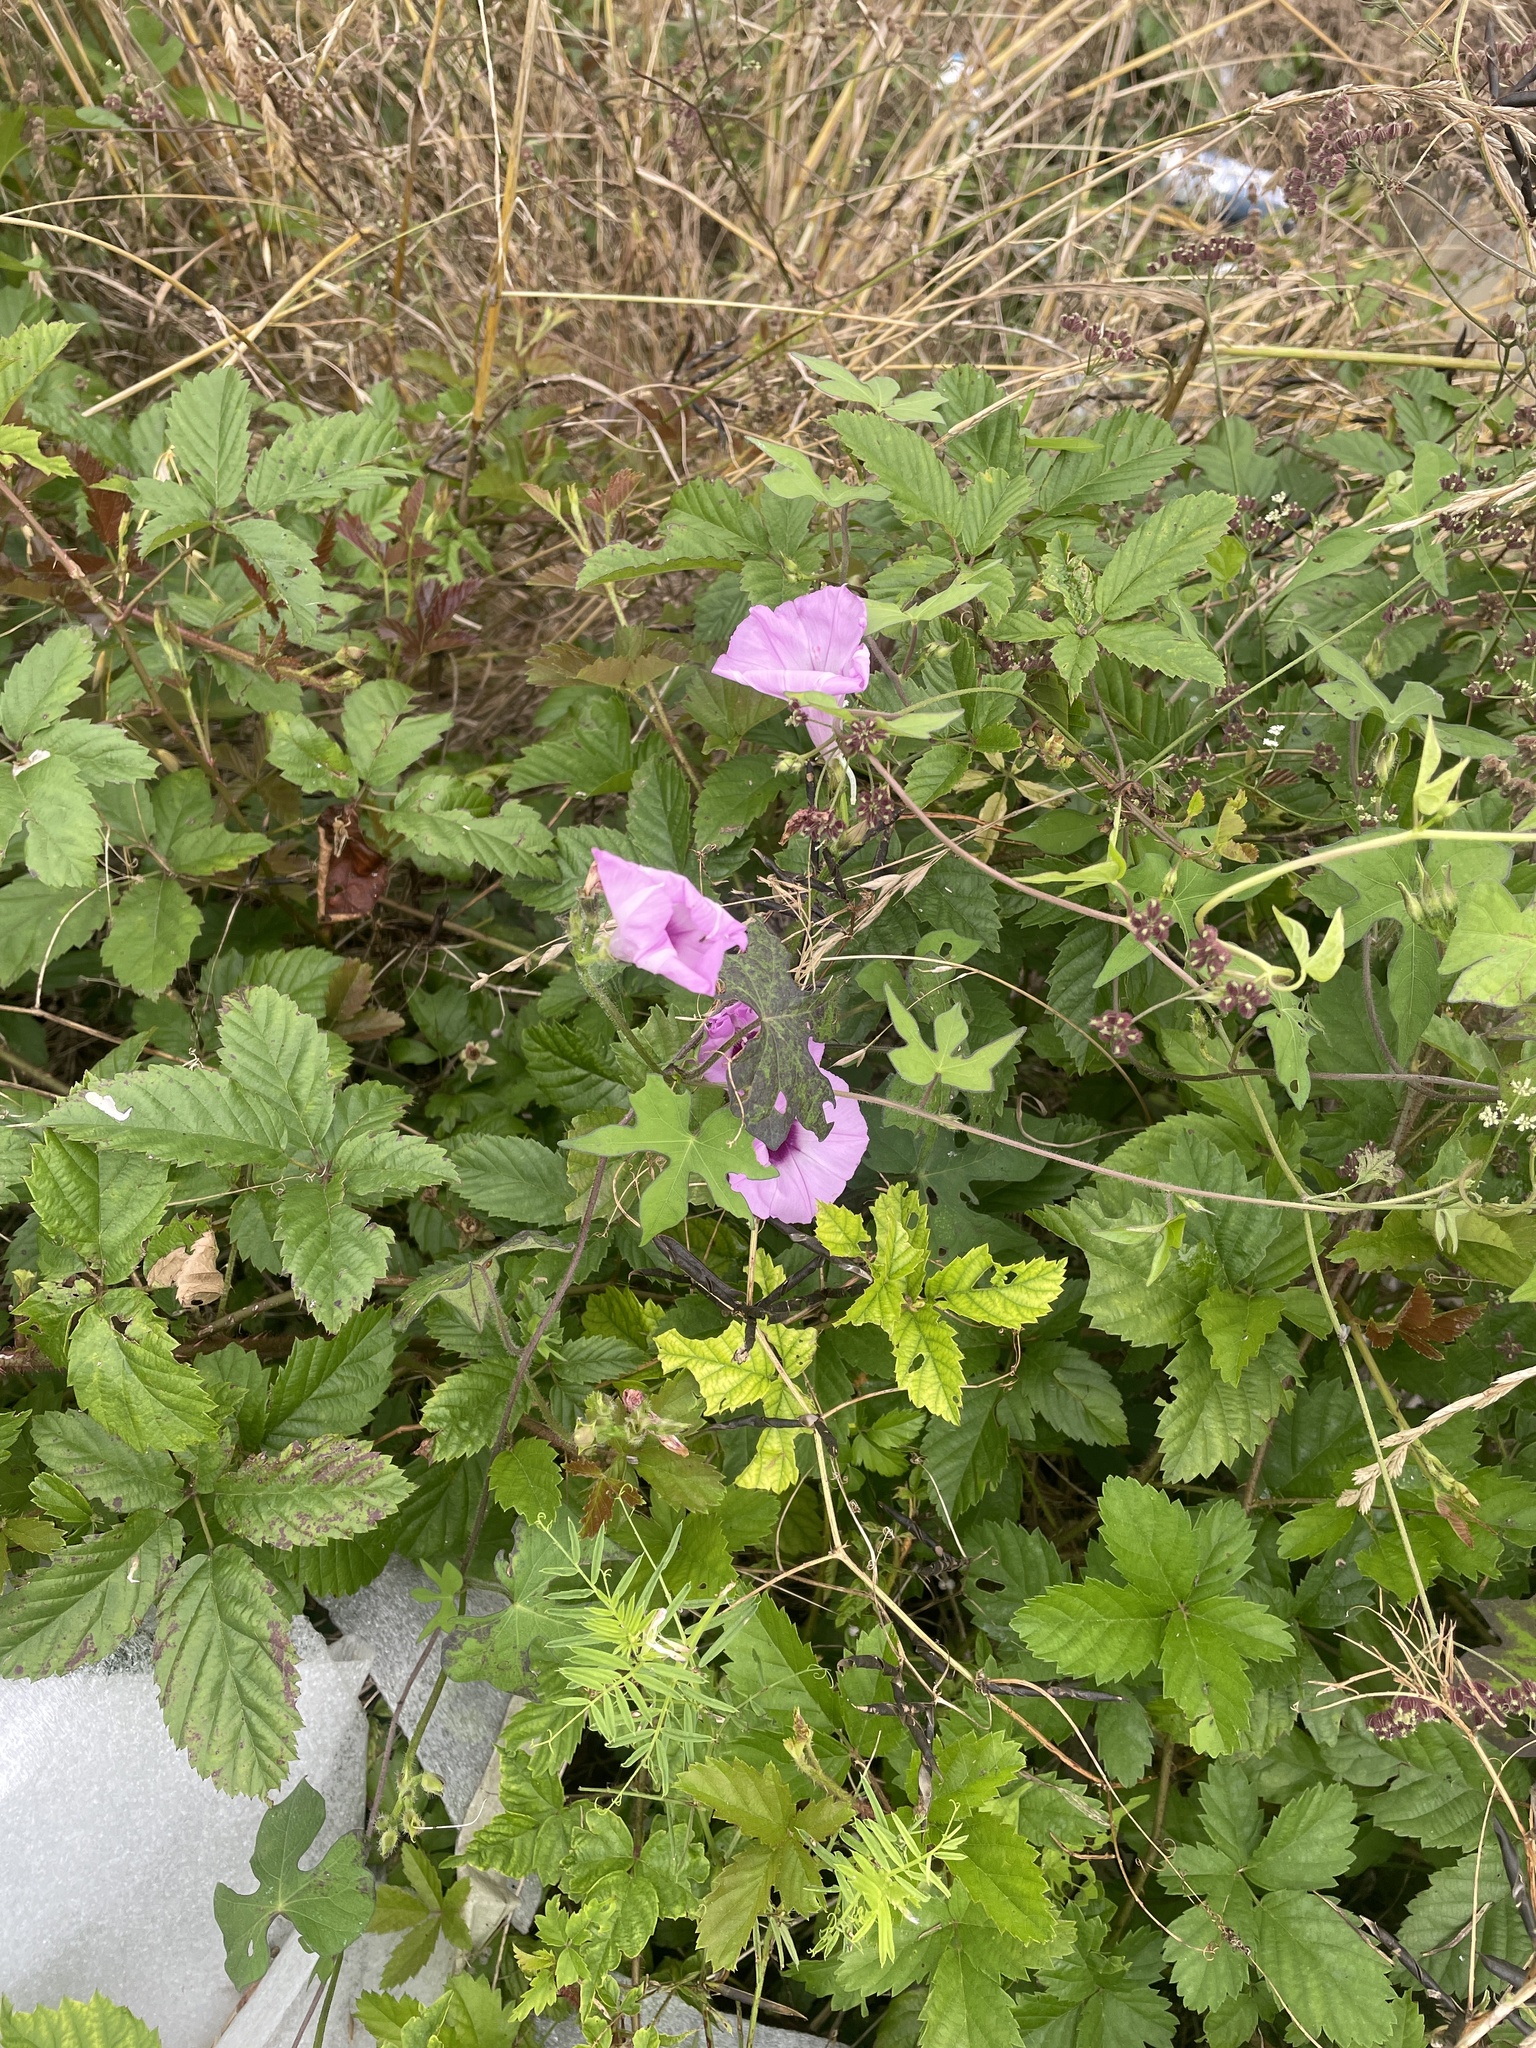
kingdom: Plantae
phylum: Tracheophyta
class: Magnoliopsida
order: Solanales
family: Convolvulaceae
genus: Ipomoea
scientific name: Ipomoea cordatotriloba
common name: Cotton morning glory
